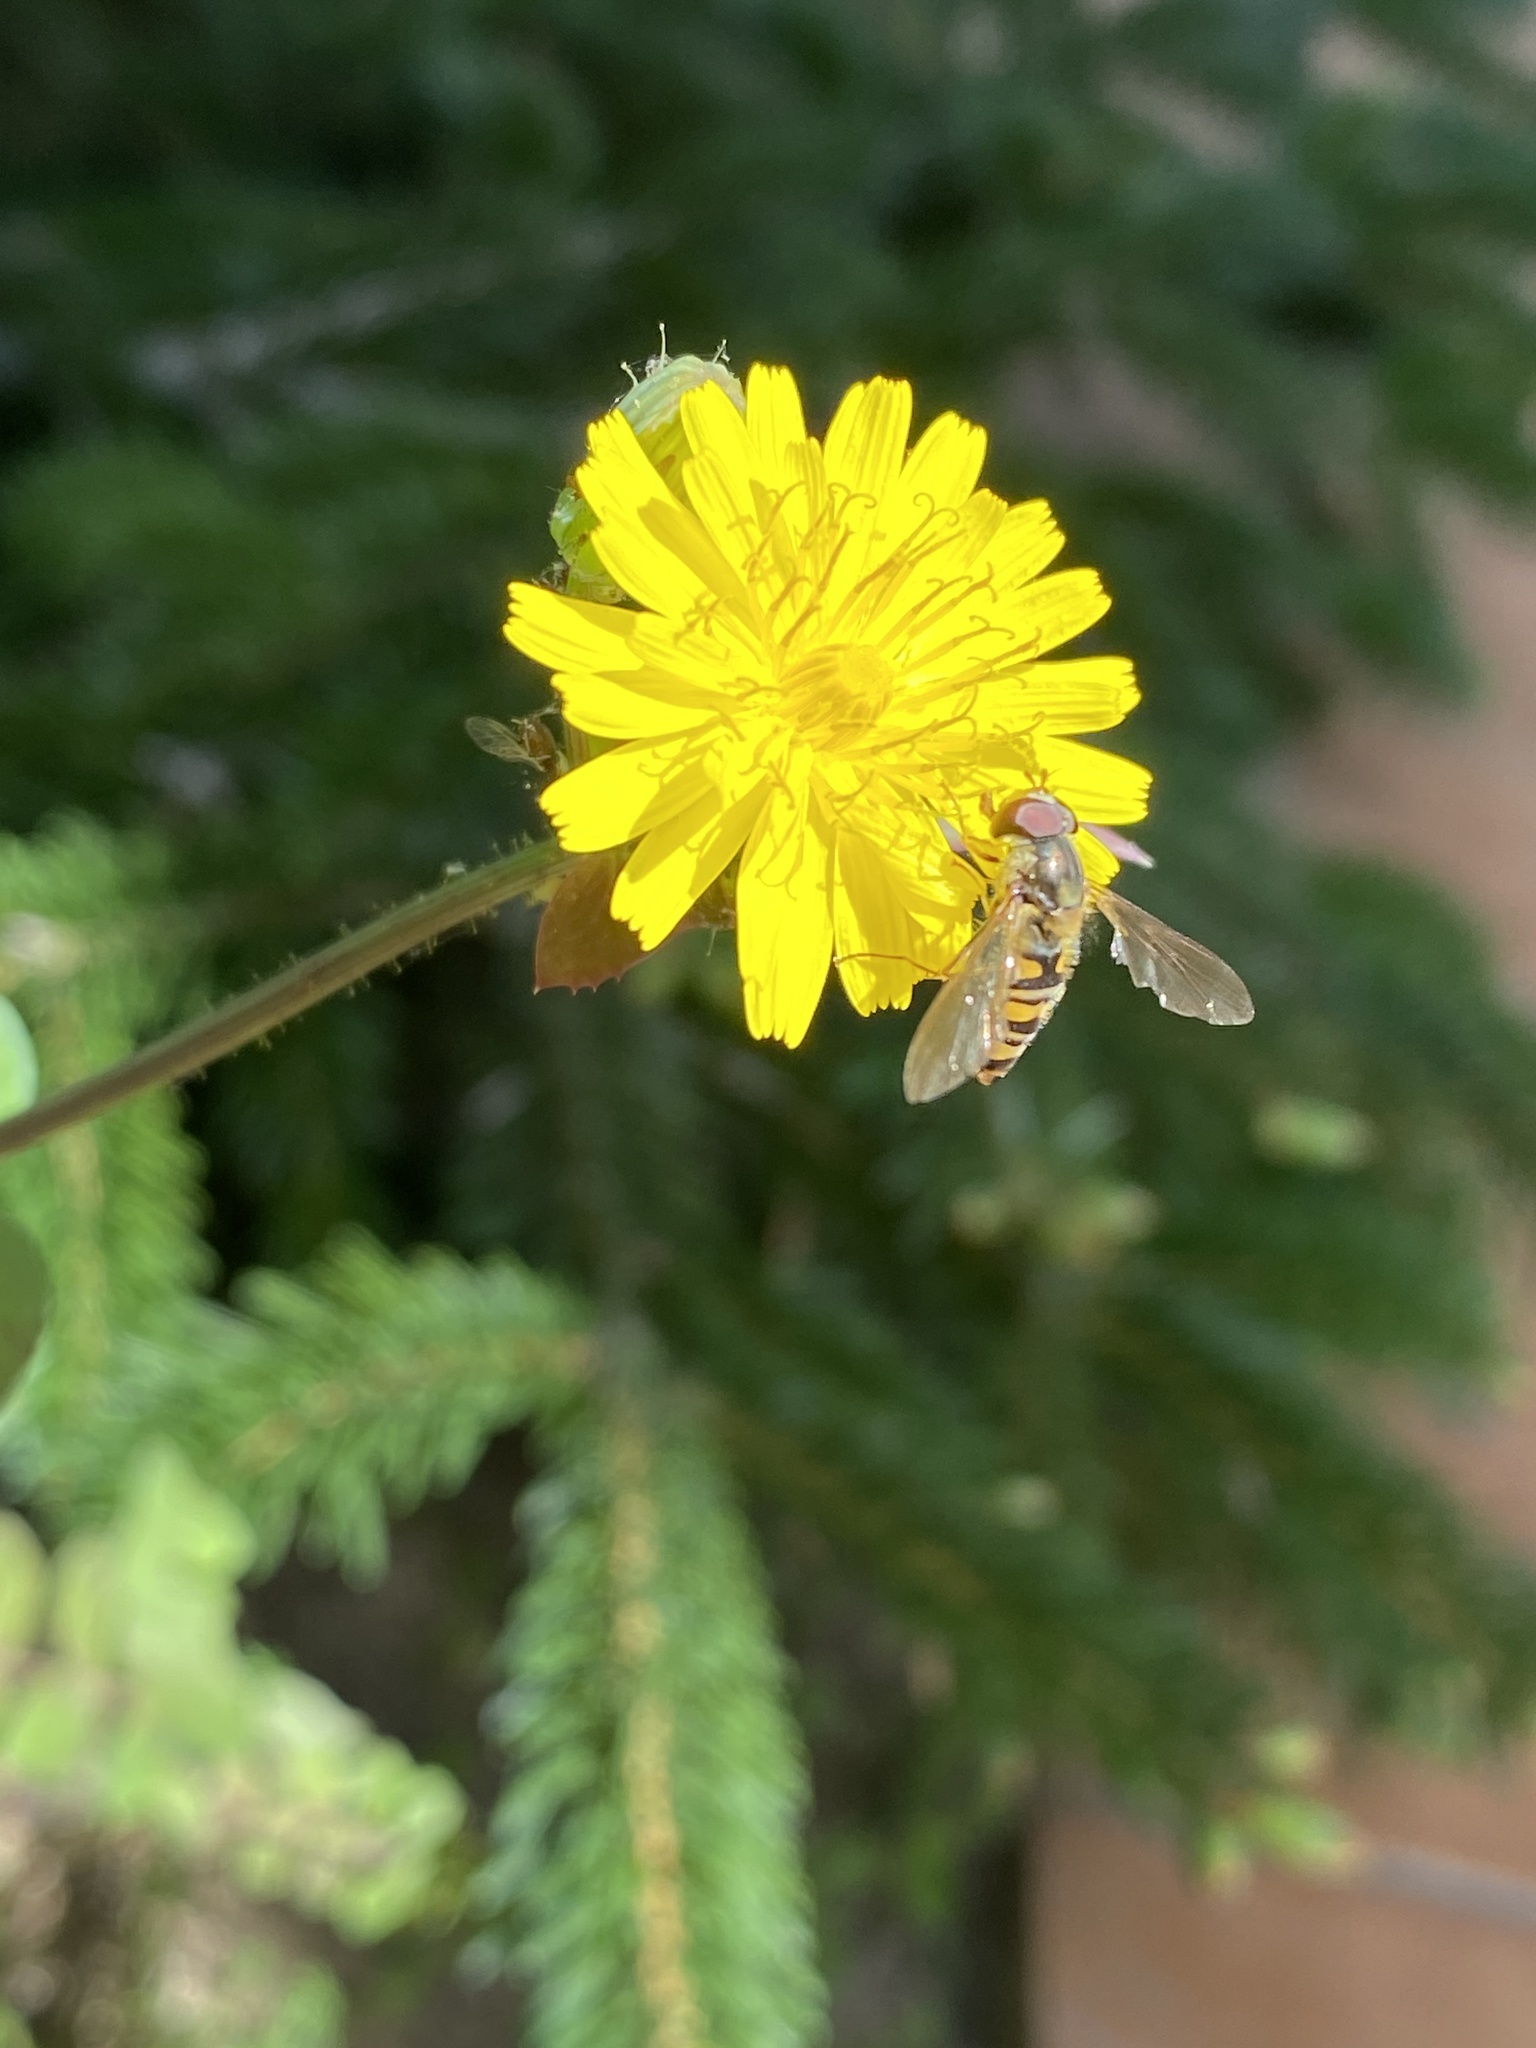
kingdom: Animalia
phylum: Arthropoda
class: Insecta
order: Diptera
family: Syrphidae
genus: Episyrphus
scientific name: Episyrphus balteatus
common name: Marmalade hoverfly
